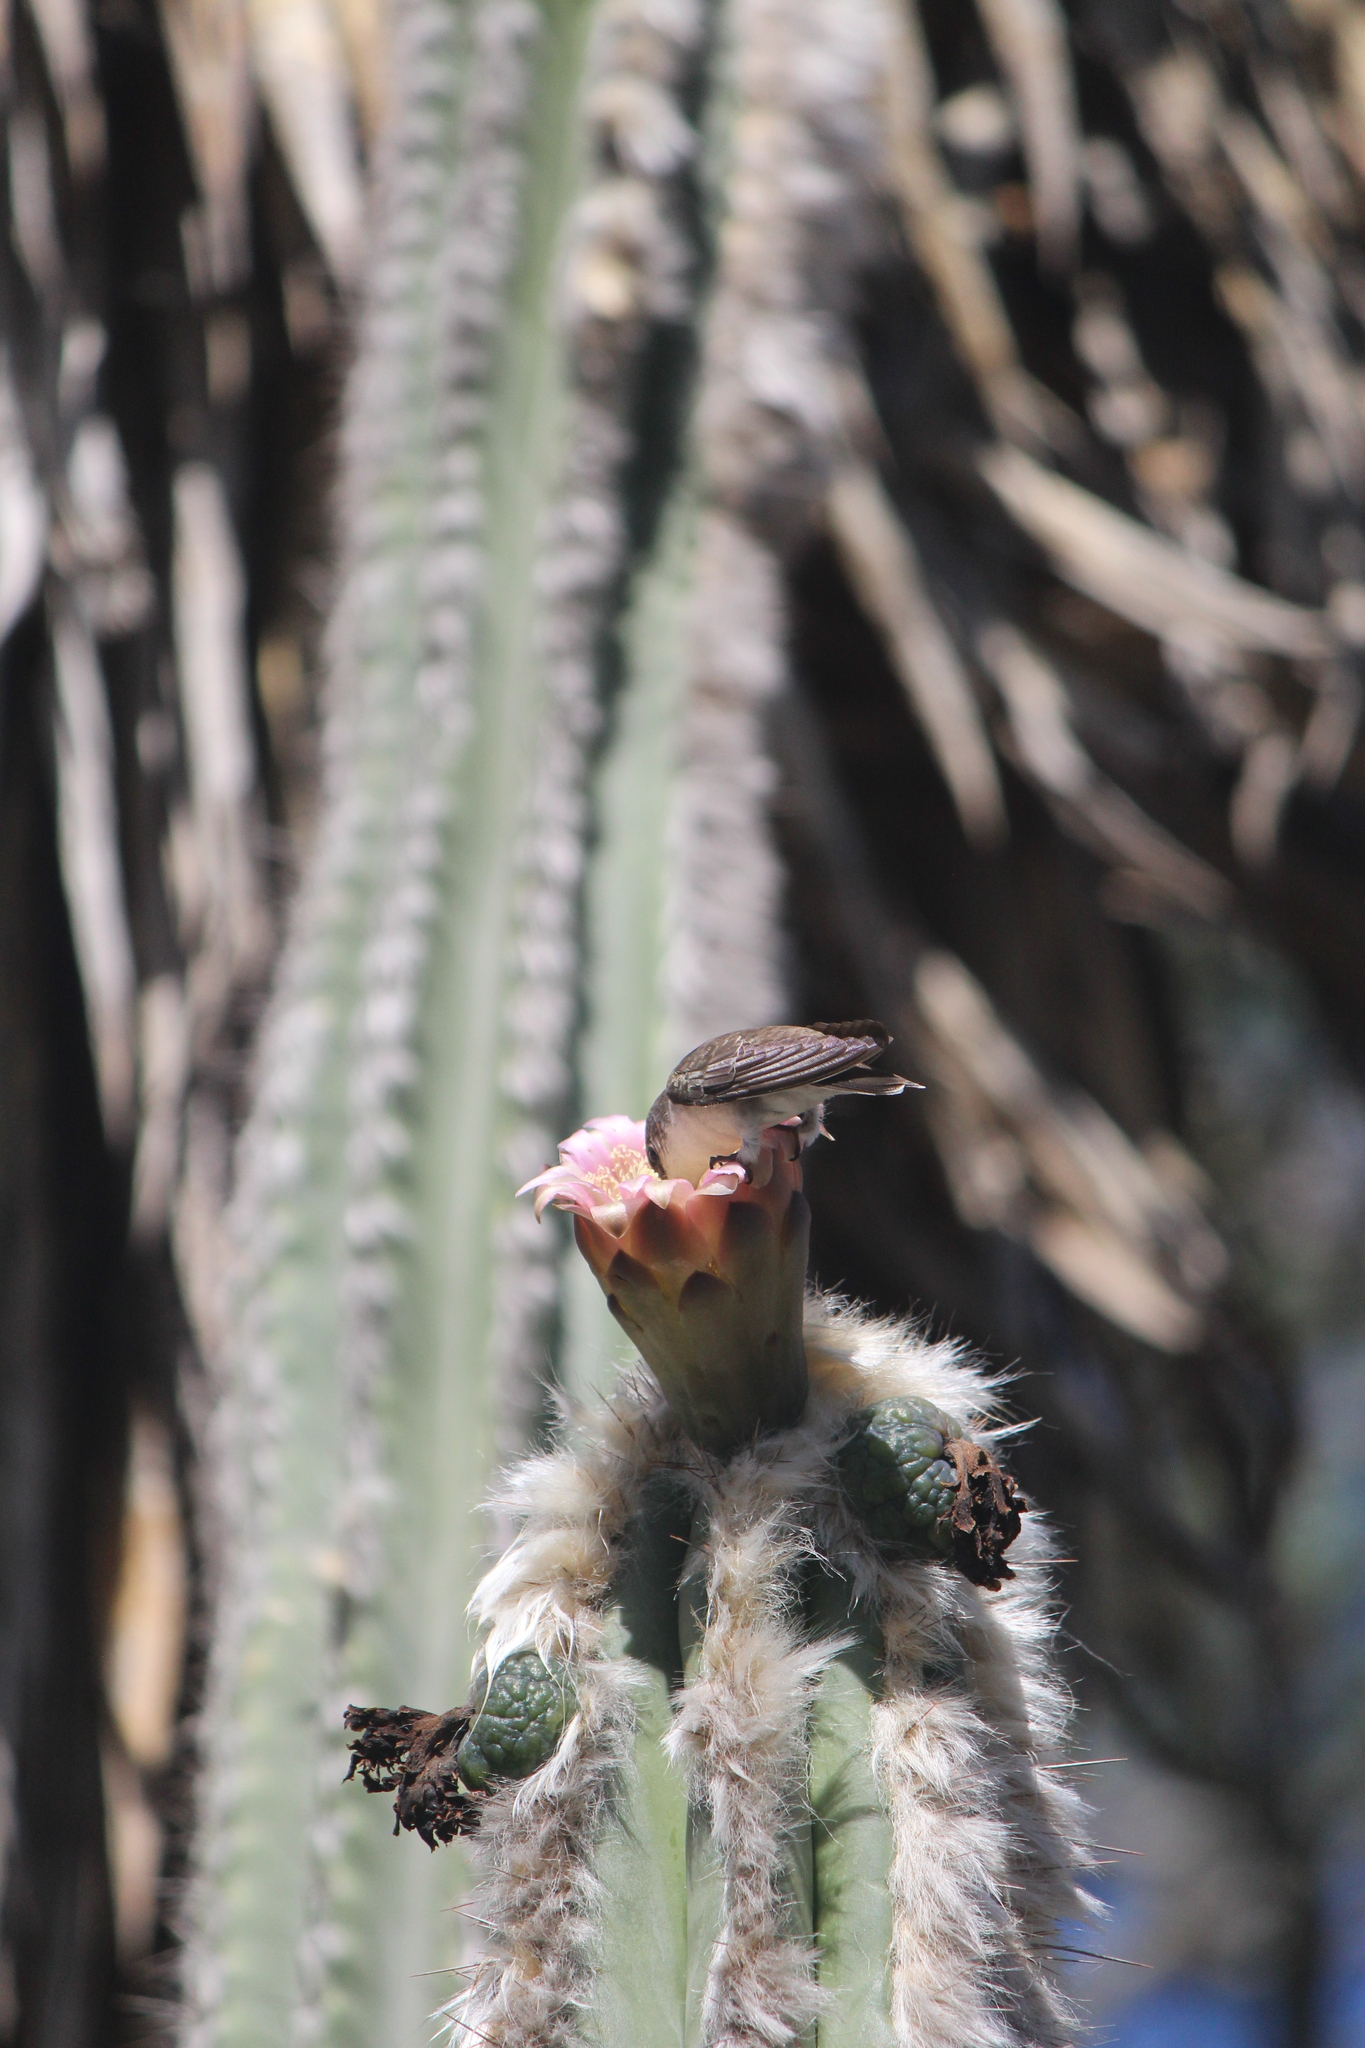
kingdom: Animalia
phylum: Chordata
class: Aves
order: Apodiformes
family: Trochilidae
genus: Leucolia
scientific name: Leucolia violiceps
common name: Violet-crowned hummingbird
